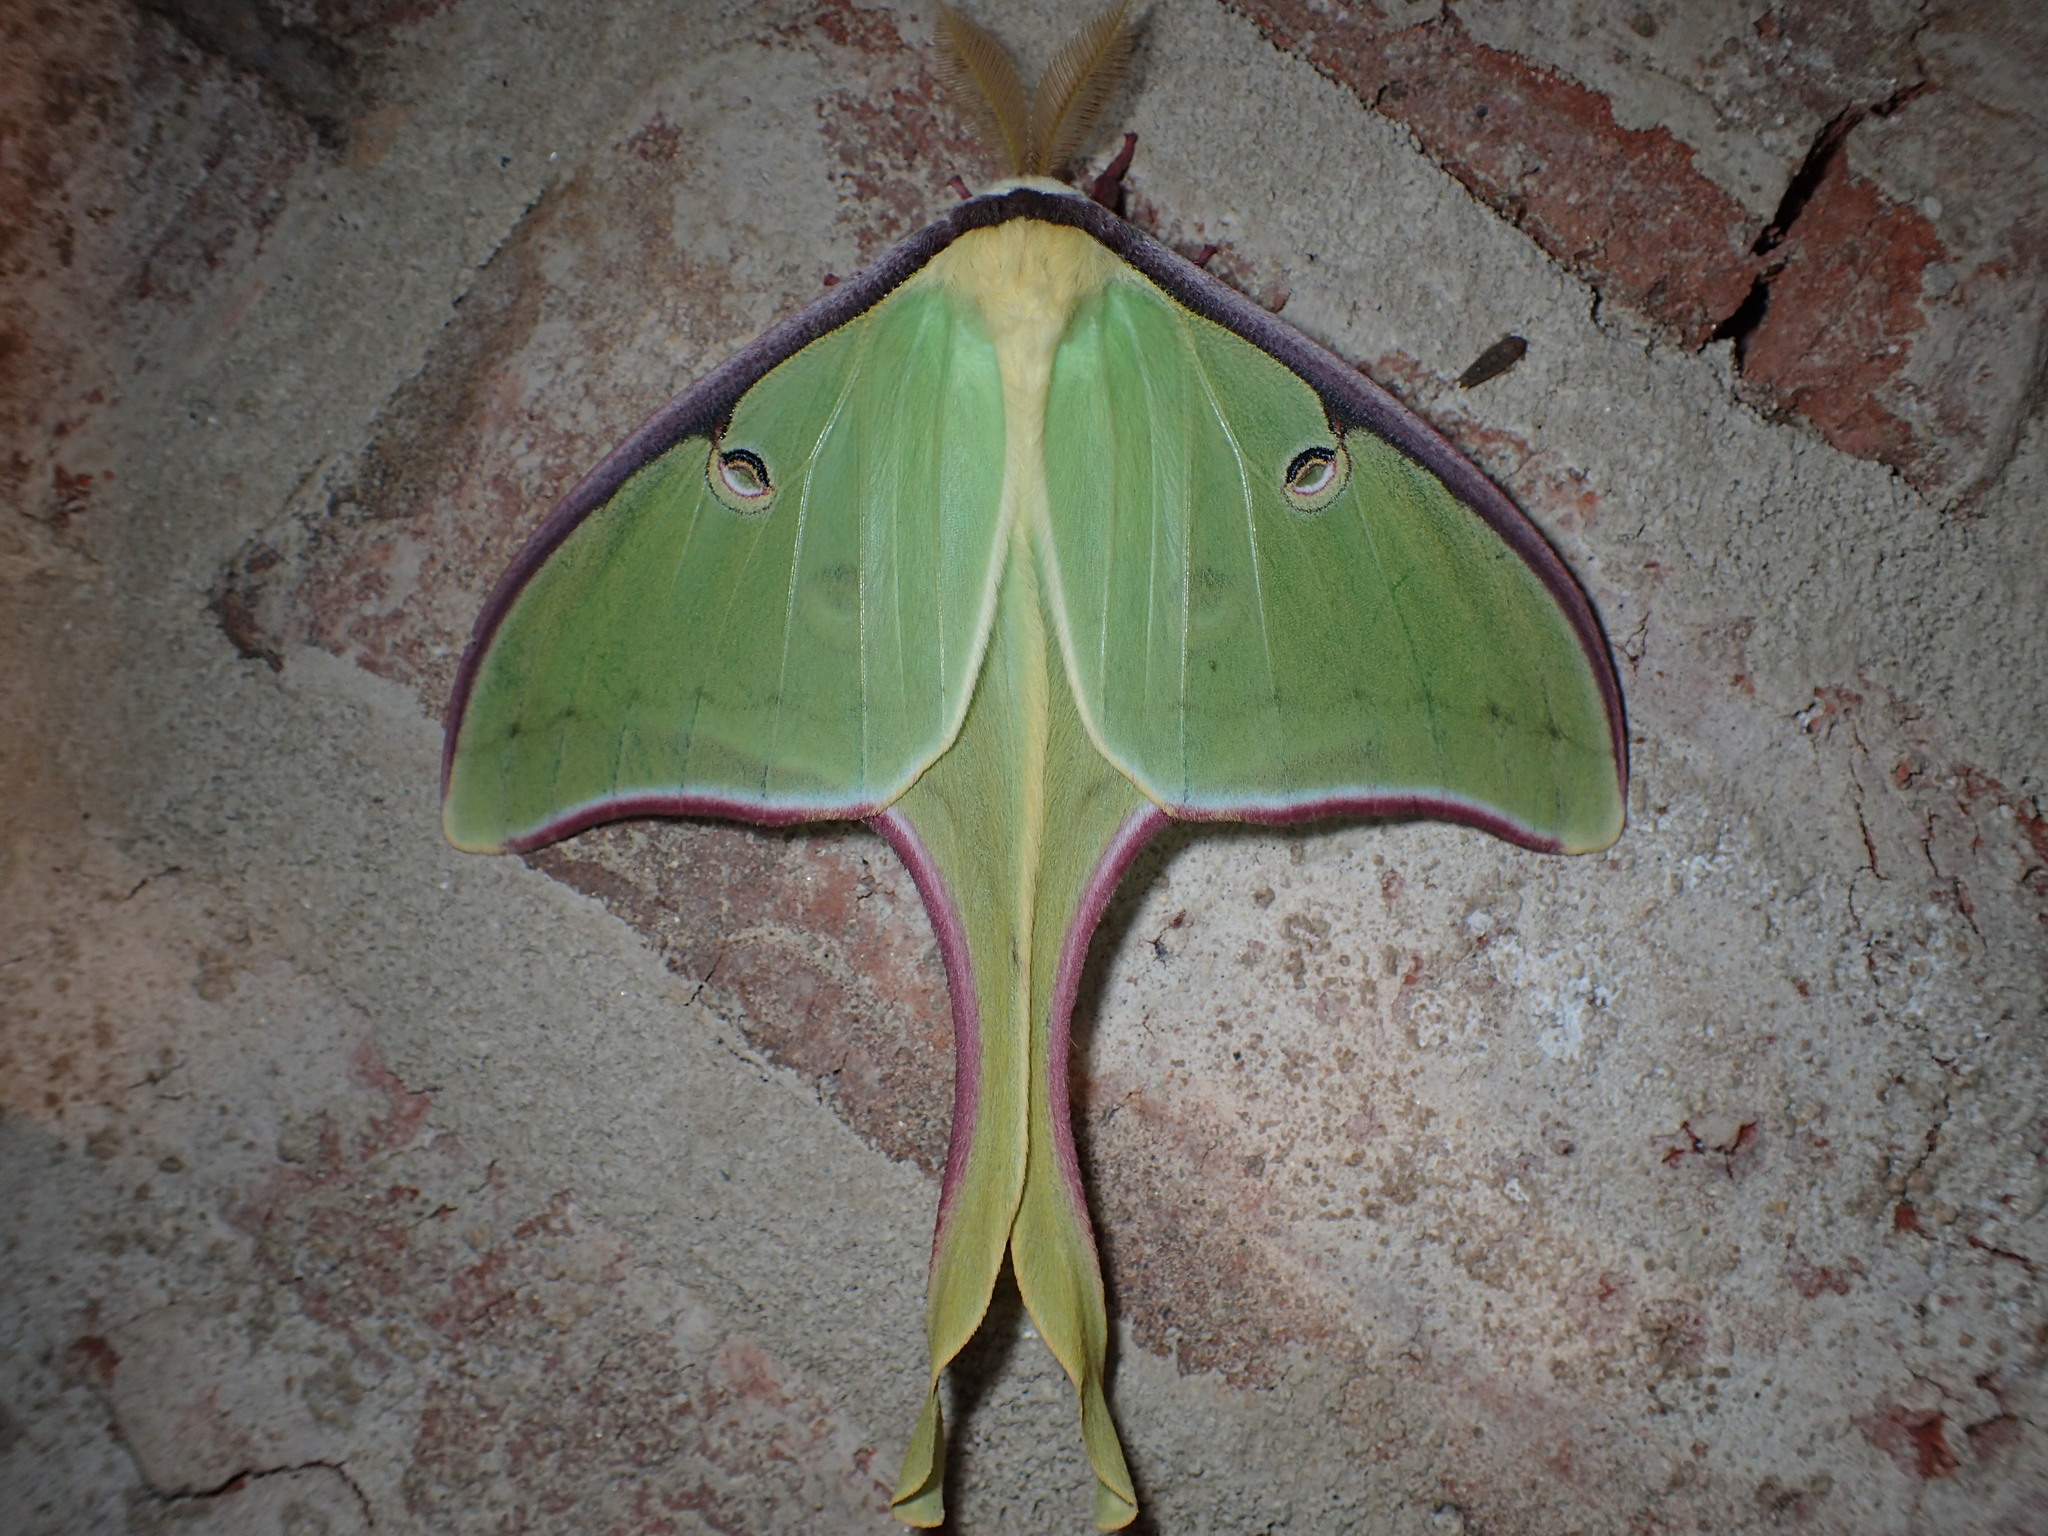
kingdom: Animalia
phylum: Arthropoda
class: Insecta
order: Lepidoptera
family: Saturniidae
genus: Actias
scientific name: Actias luna
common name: Luna moth
